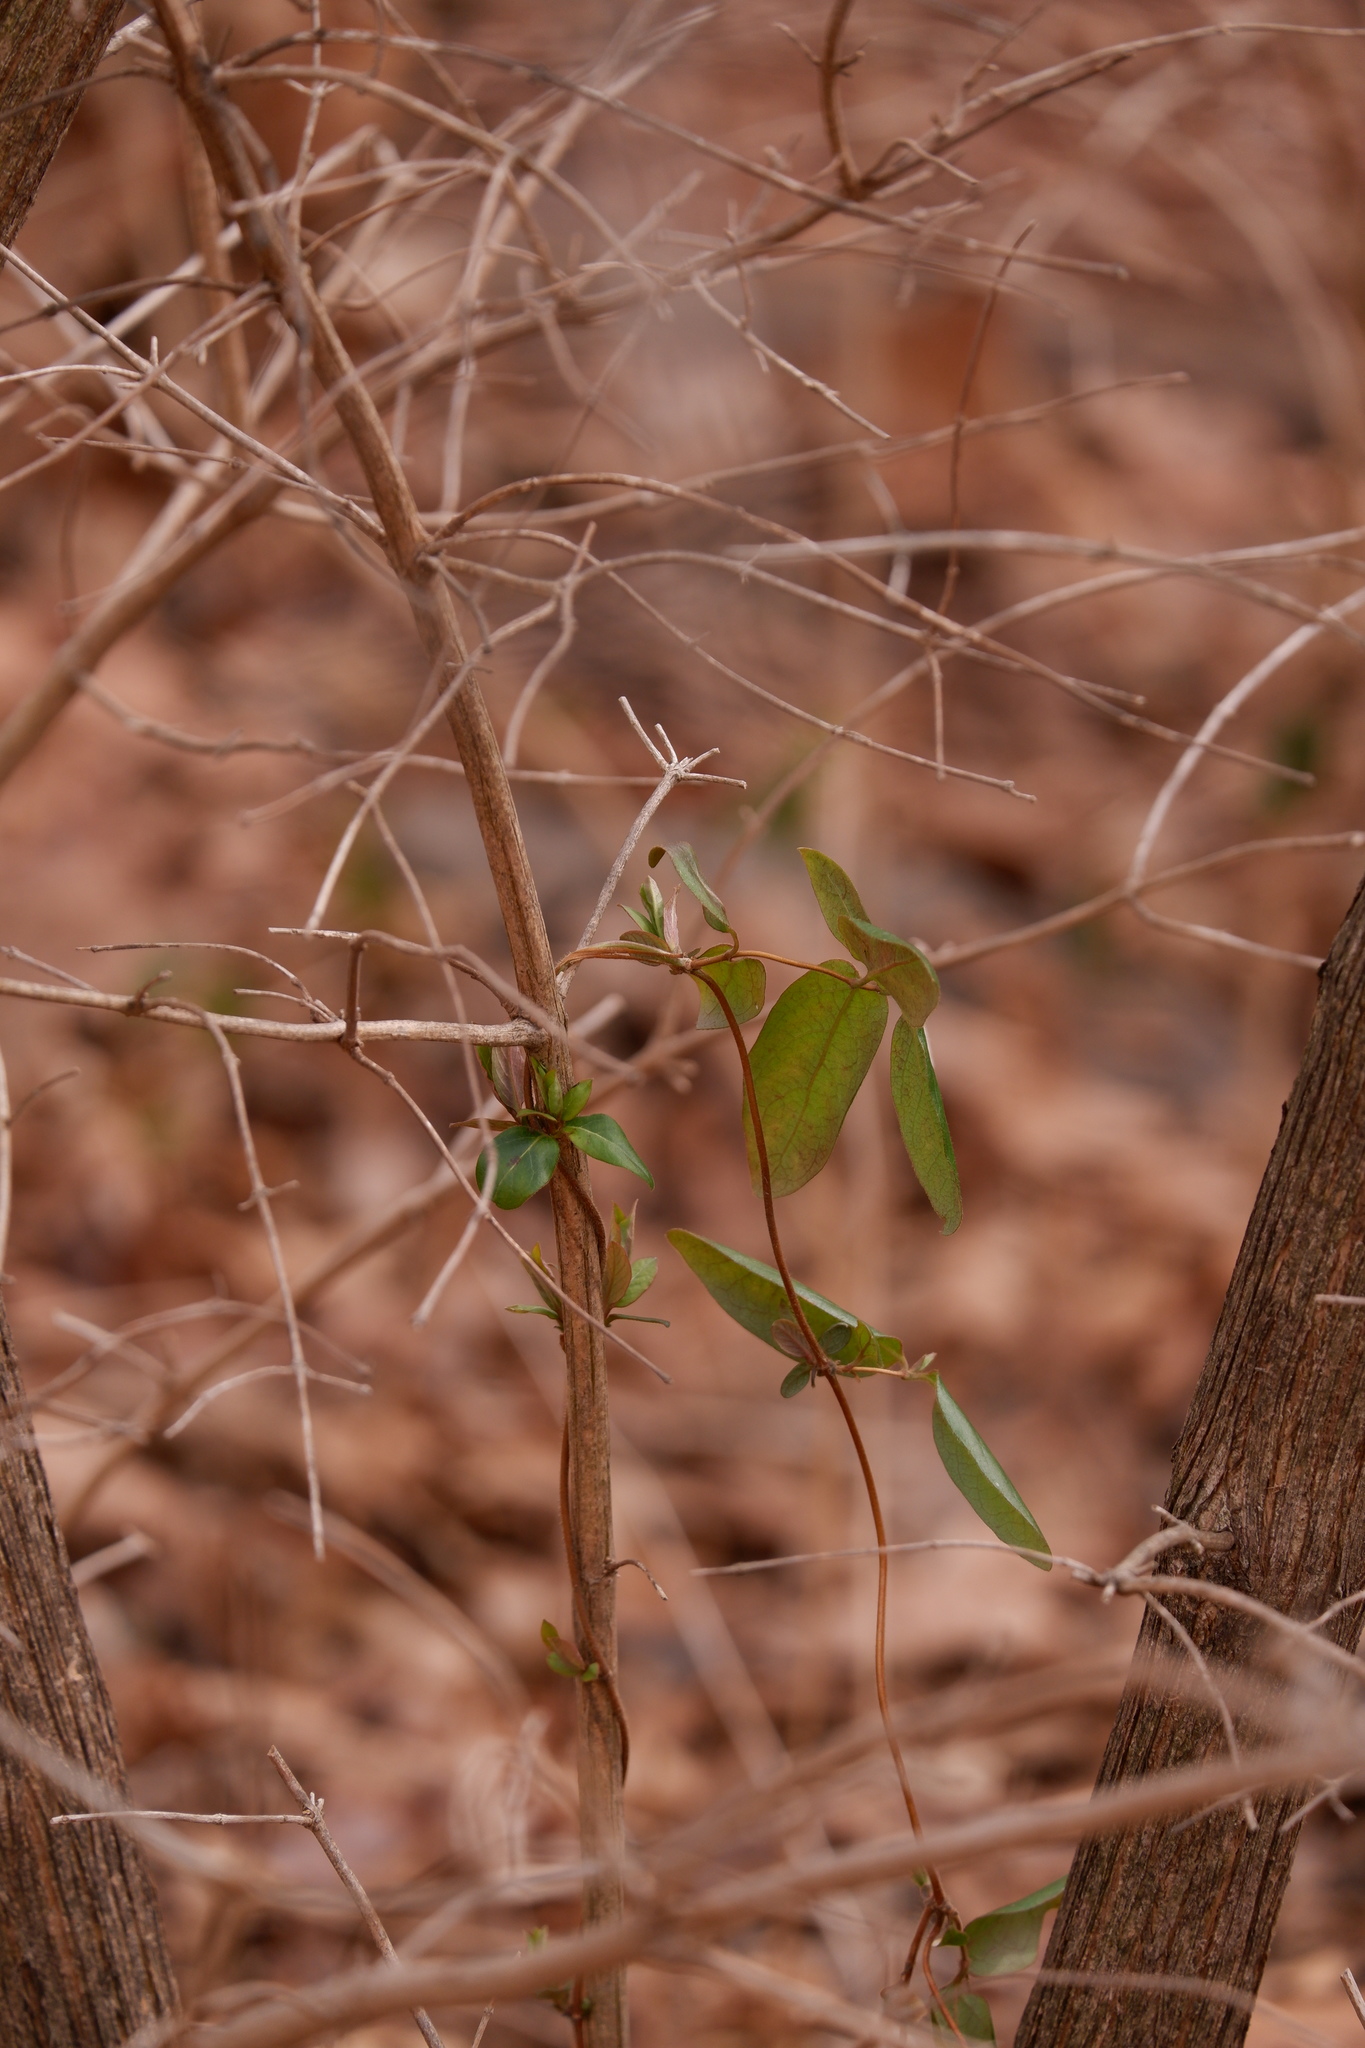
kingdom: Plantae
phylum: Tracheophyta
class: Magnoliopsida
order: Dipsacales
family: Caprifoliaceae
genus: Lonicera
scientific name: Lonicera japonica
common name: Japanese honeysuckle
